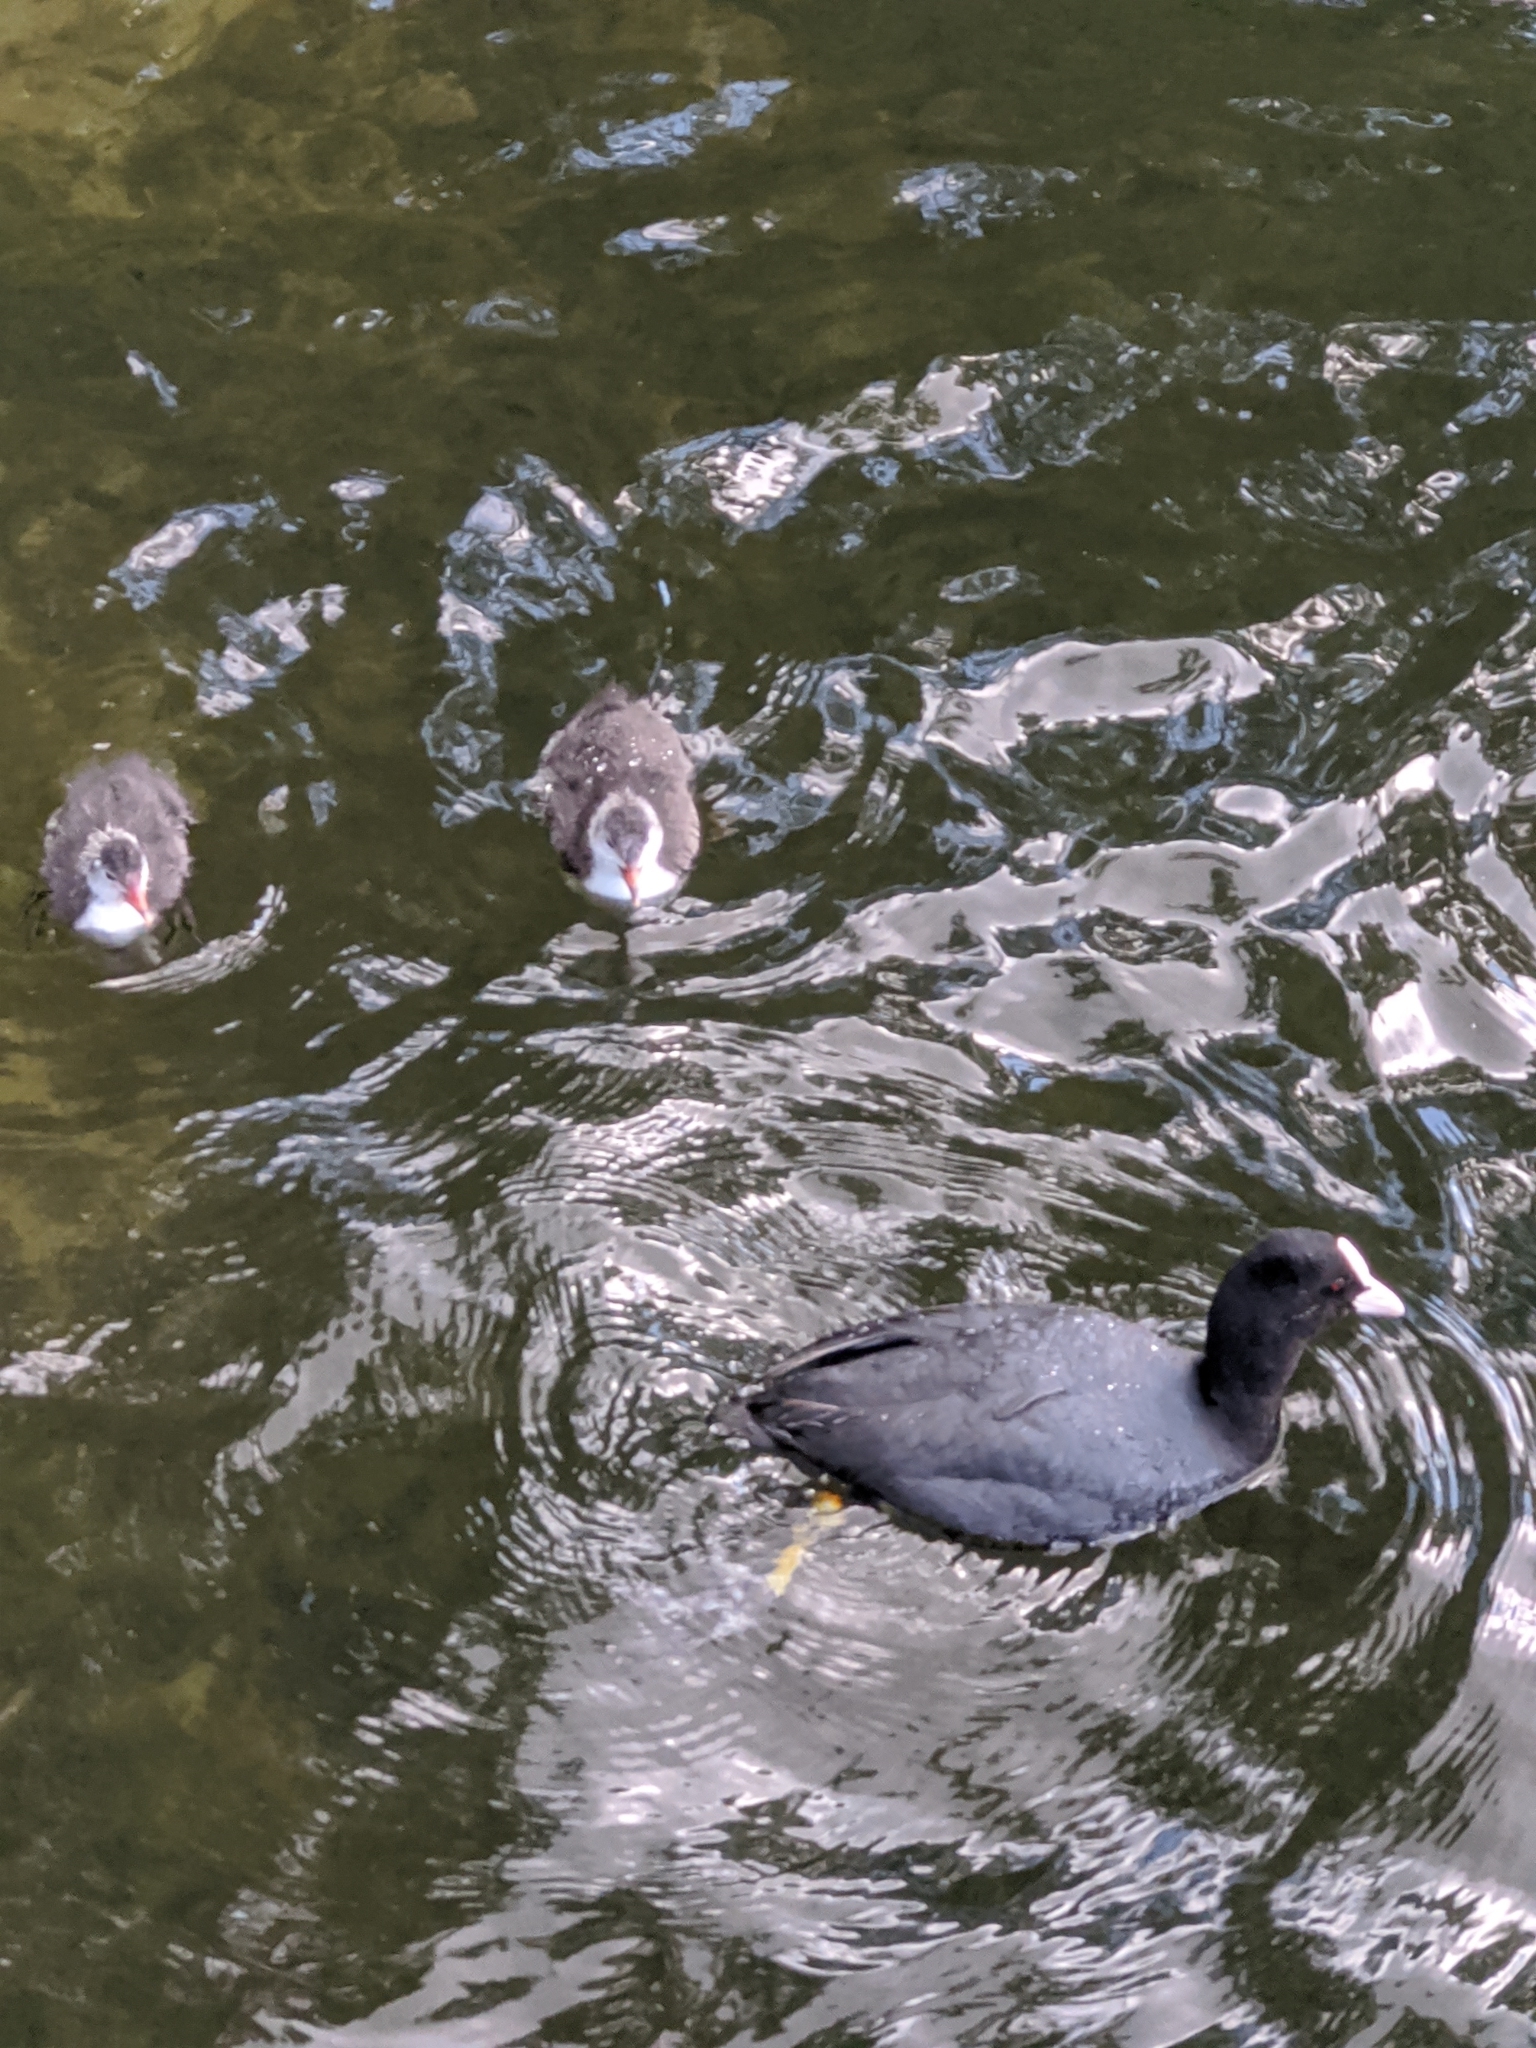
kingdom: Animalia
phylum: Chordata
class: Aves
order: Gruiformes
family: Rallidae
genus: Fulica
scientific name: Fulica atra
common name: Eurasian coot
